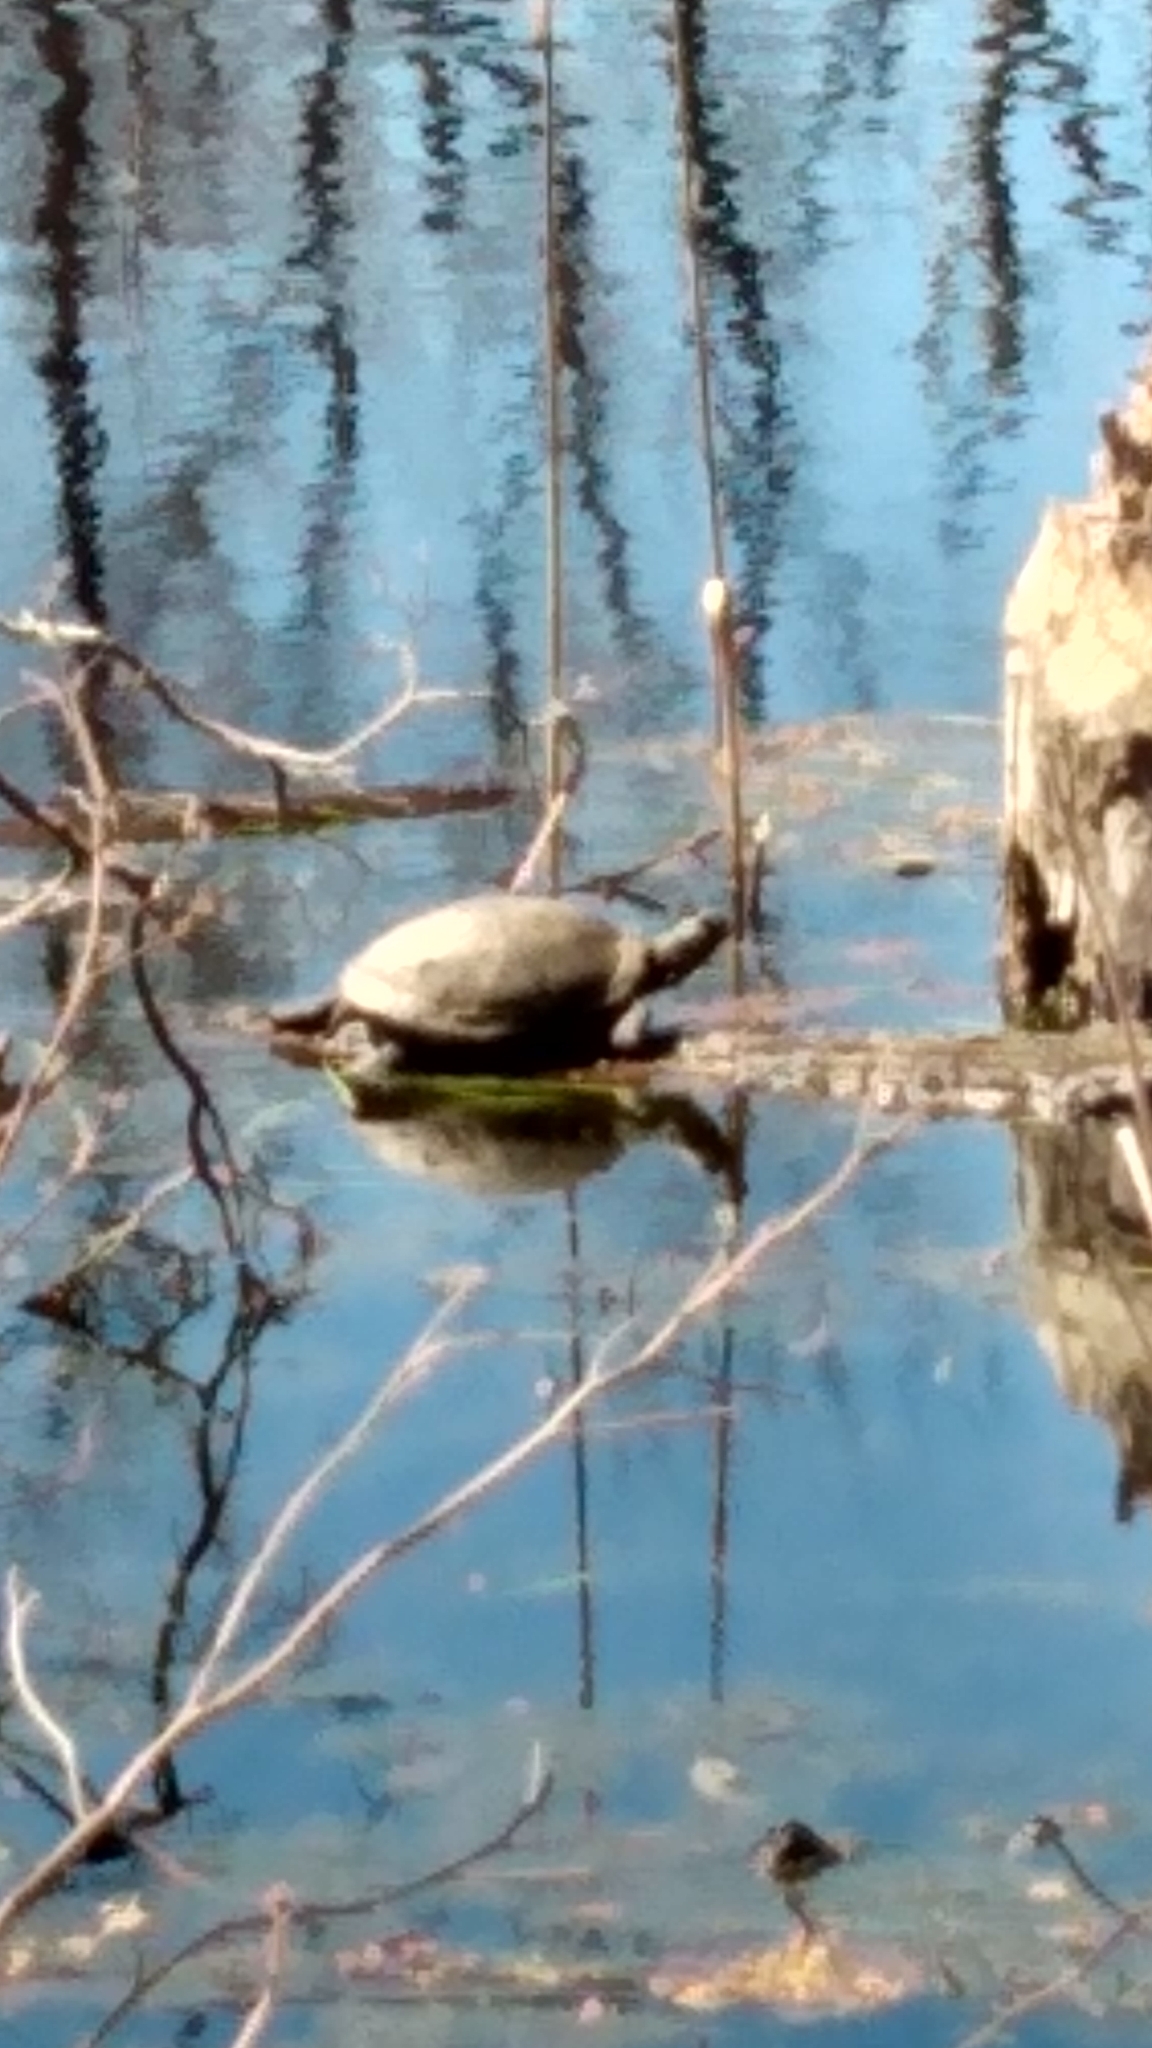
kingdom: Animalia
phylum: Chordata
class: Testudines
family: Emydidae
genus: Trachemys
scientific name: Trachemys scripta
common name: Slider
